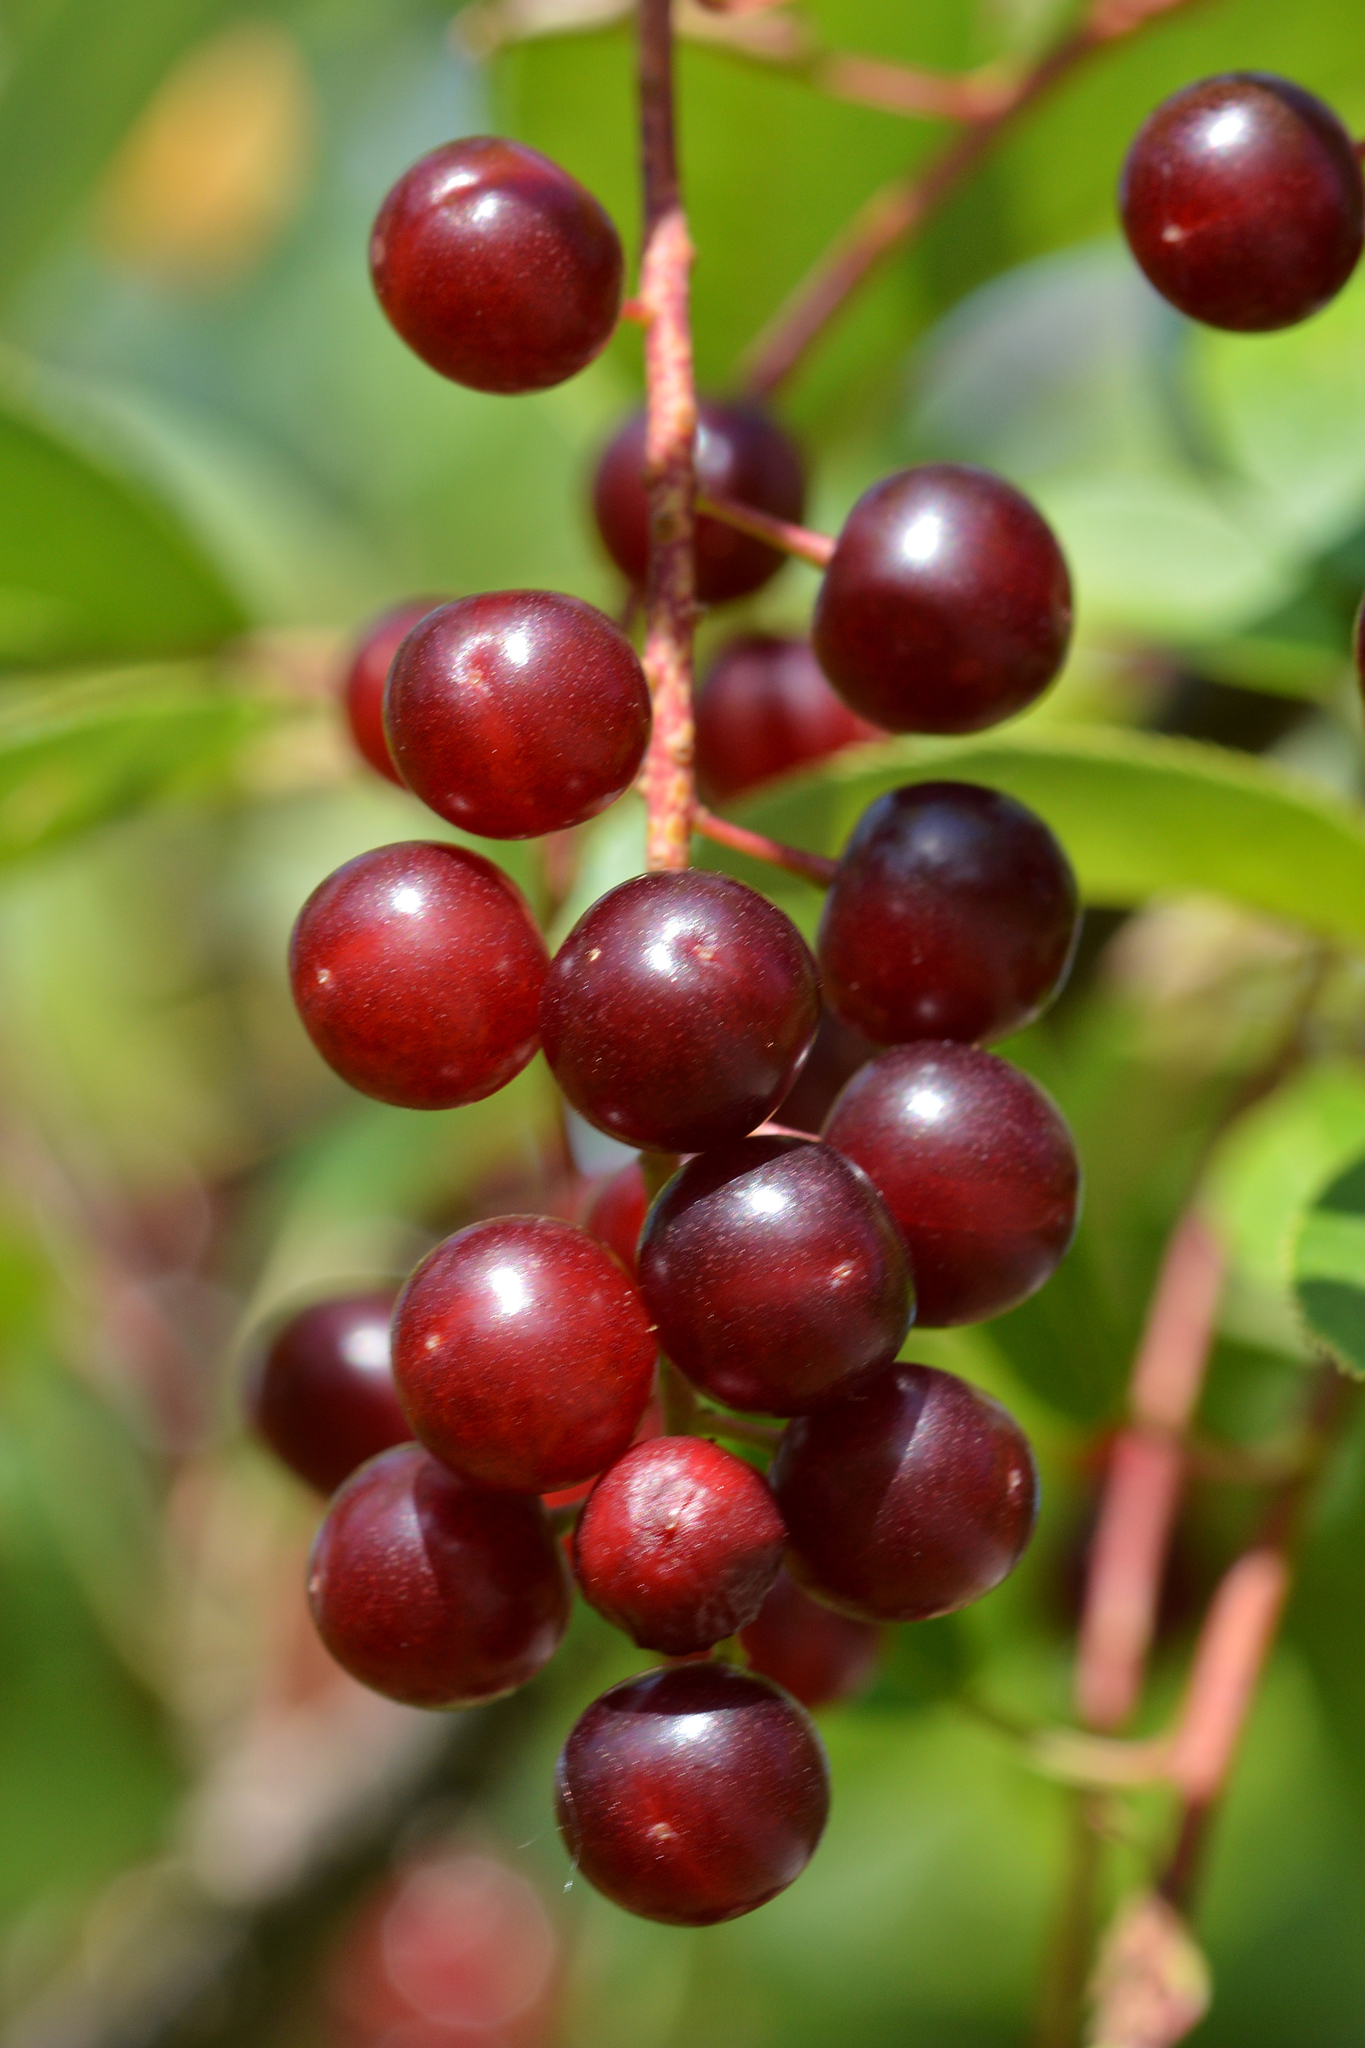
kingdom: Plantae
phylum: Tracheophyta
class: Magnoliopsida
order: Rosales
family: Rosaceae
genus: Prunus
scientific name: Prunus virginiana
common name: Chokecherry
